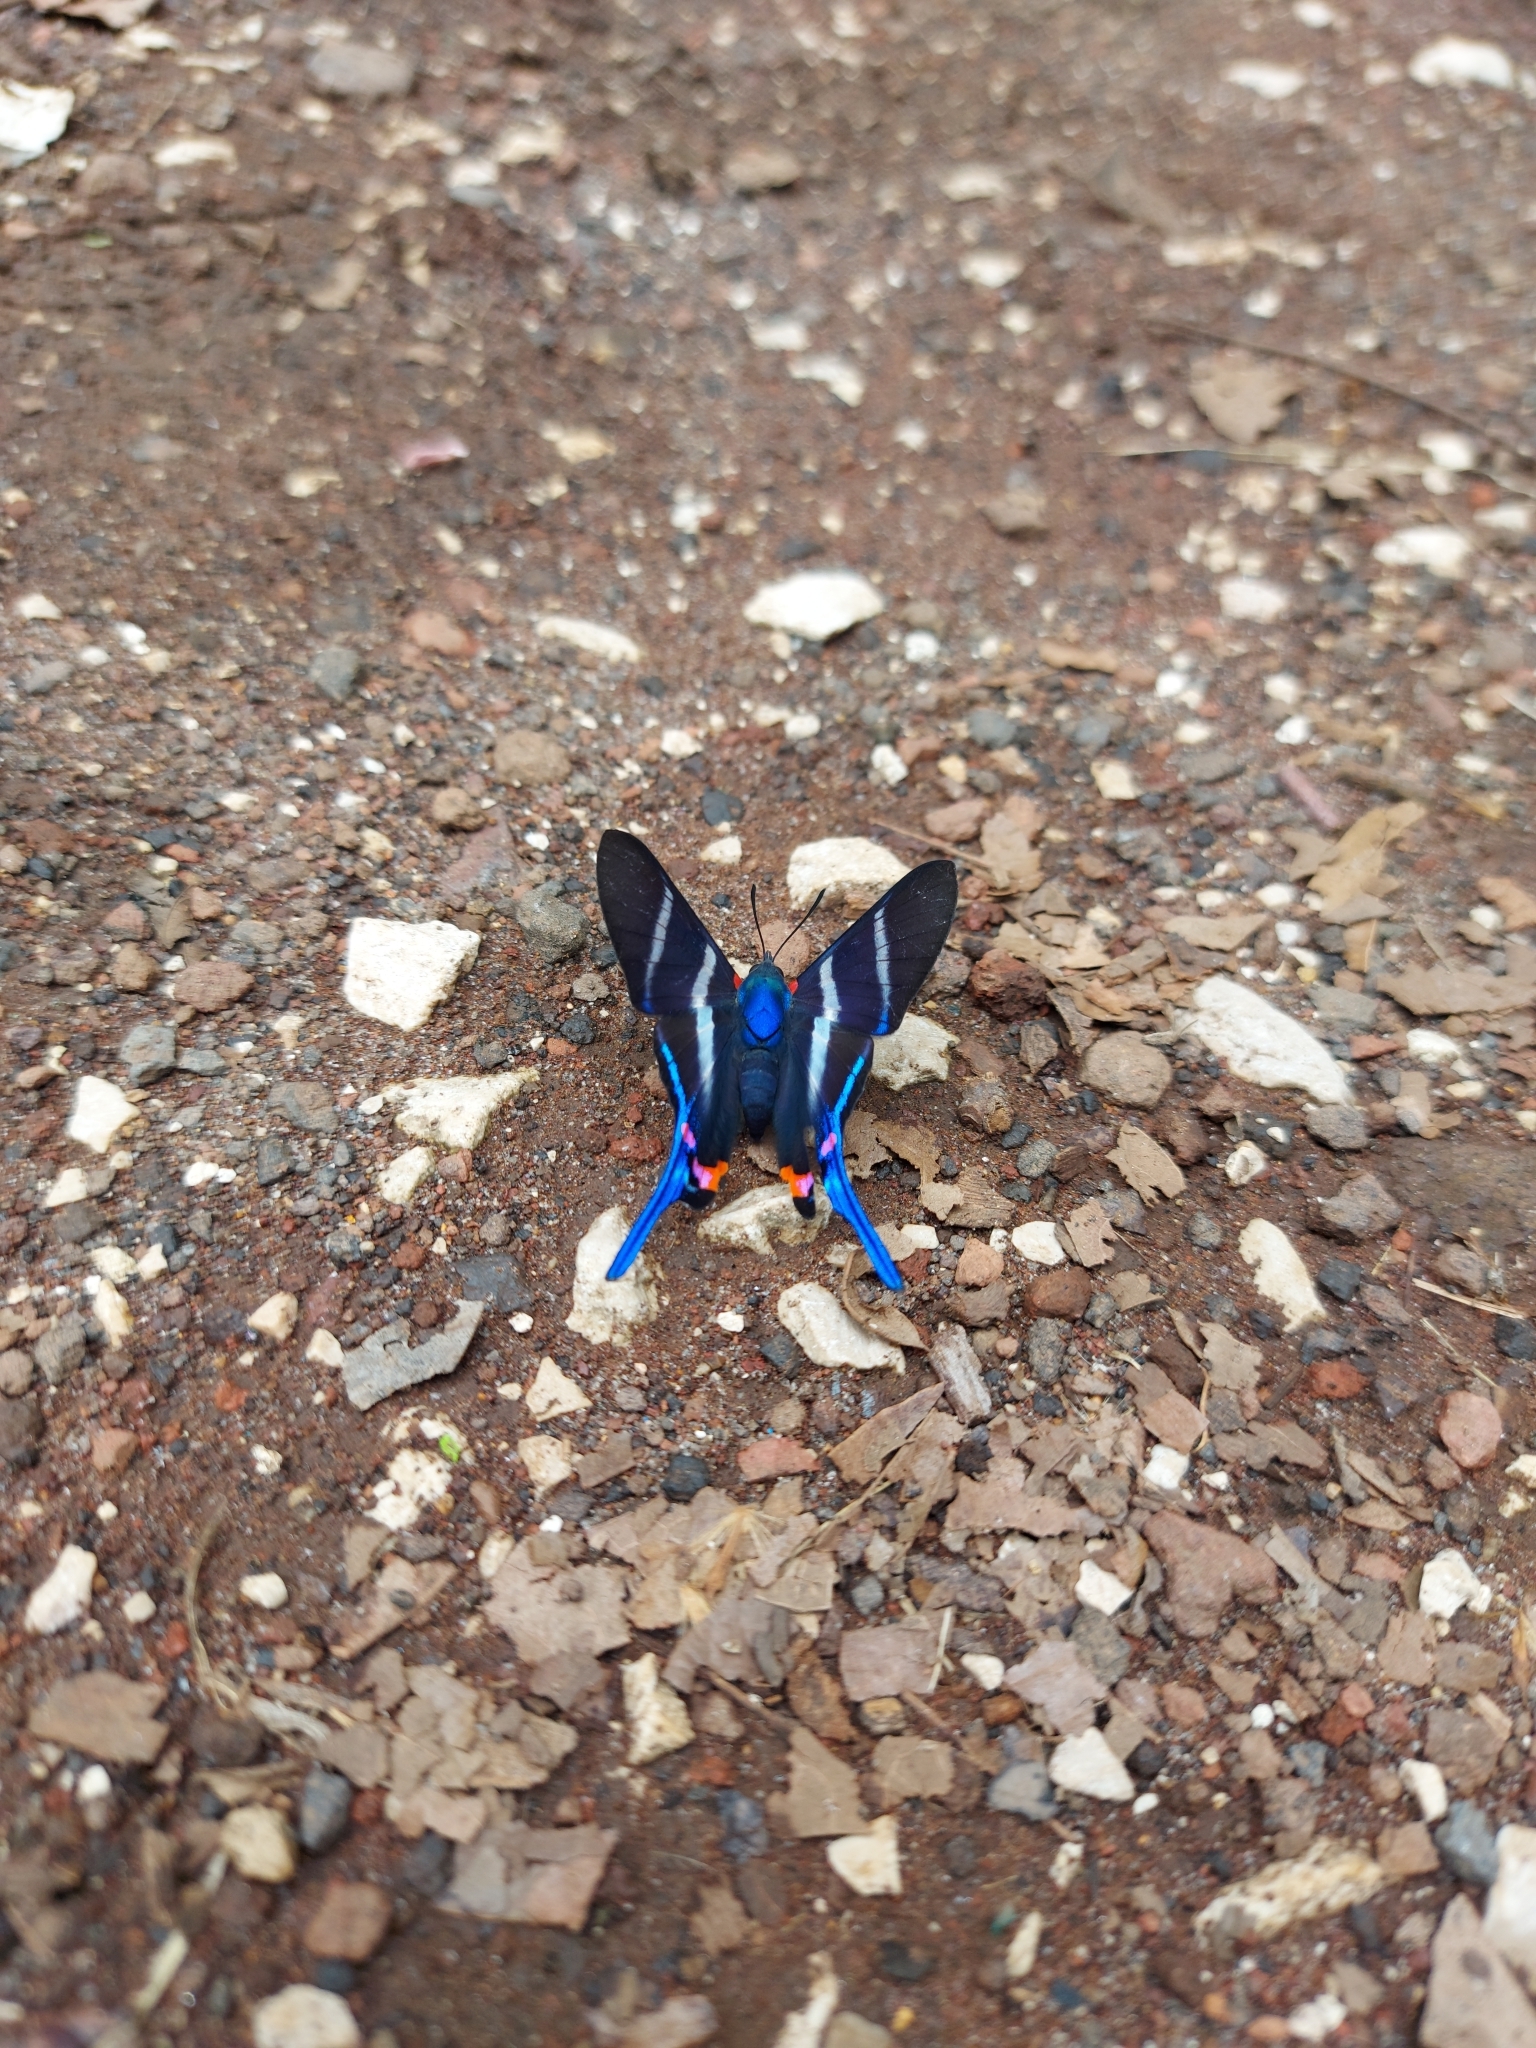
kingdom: Animalia
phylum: Arthropoda
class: Insecta
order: Lepidoptera
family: Riodinidae
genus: Rhetus
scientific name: Rhetus arcius
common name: Long-tailed metalmark
